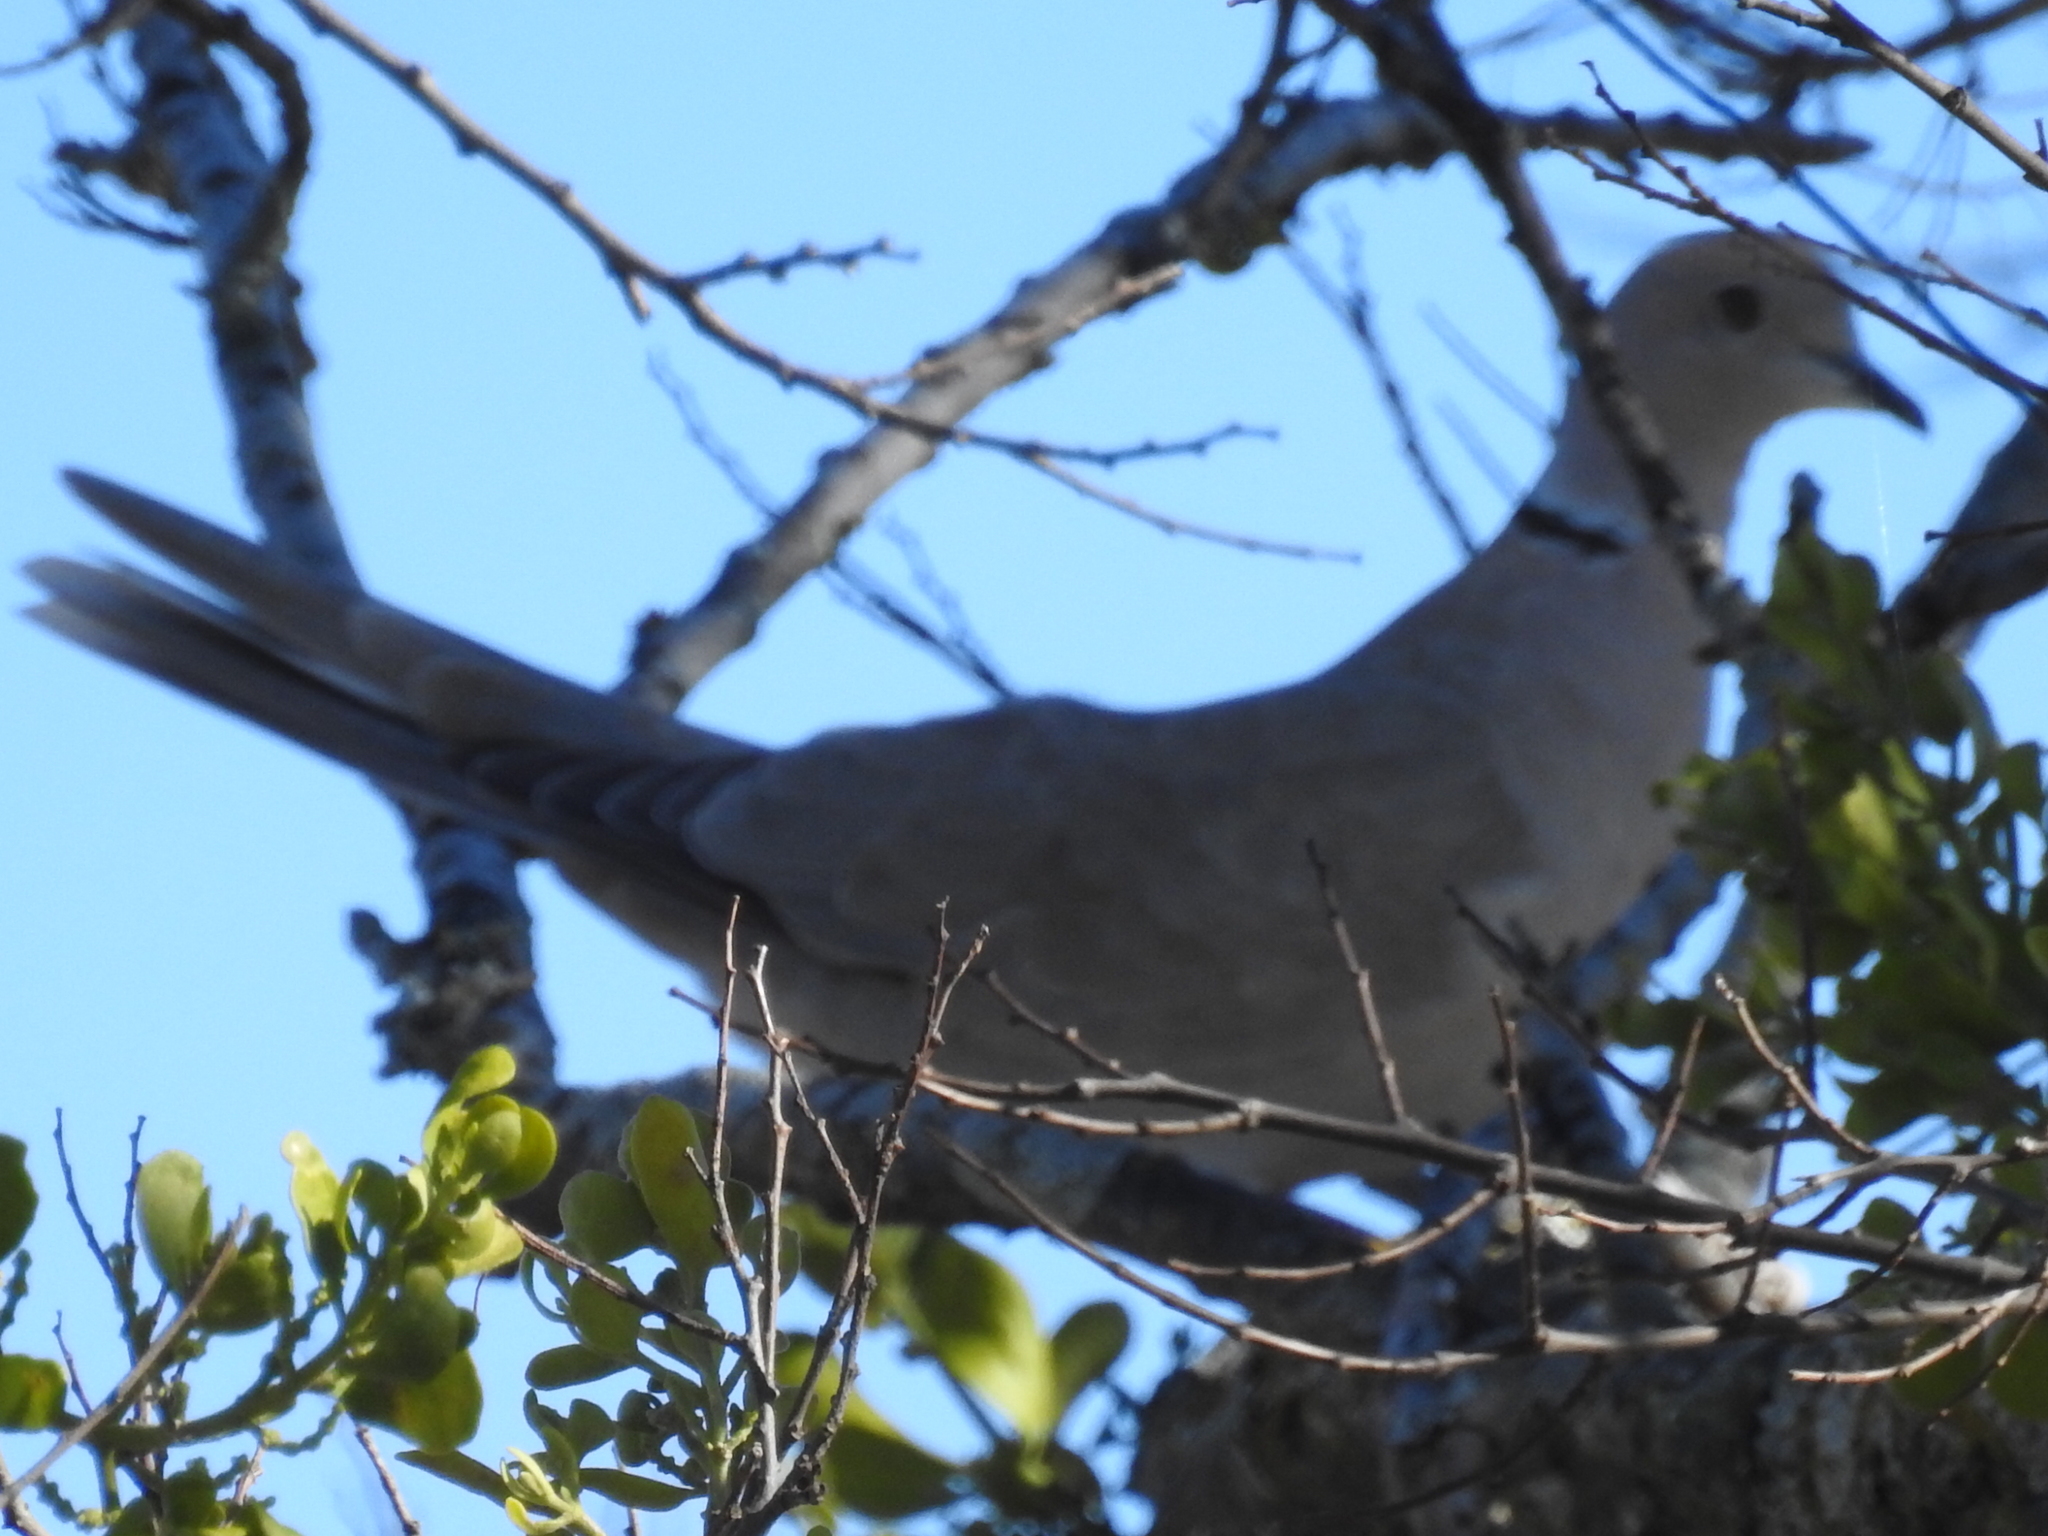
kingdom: Animalia
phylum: Chordata
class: Aves
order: Columbiformes
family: Columbidae
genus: Streptopelia
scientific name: Streptopelia decaocto
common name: Eurasian collared dove
